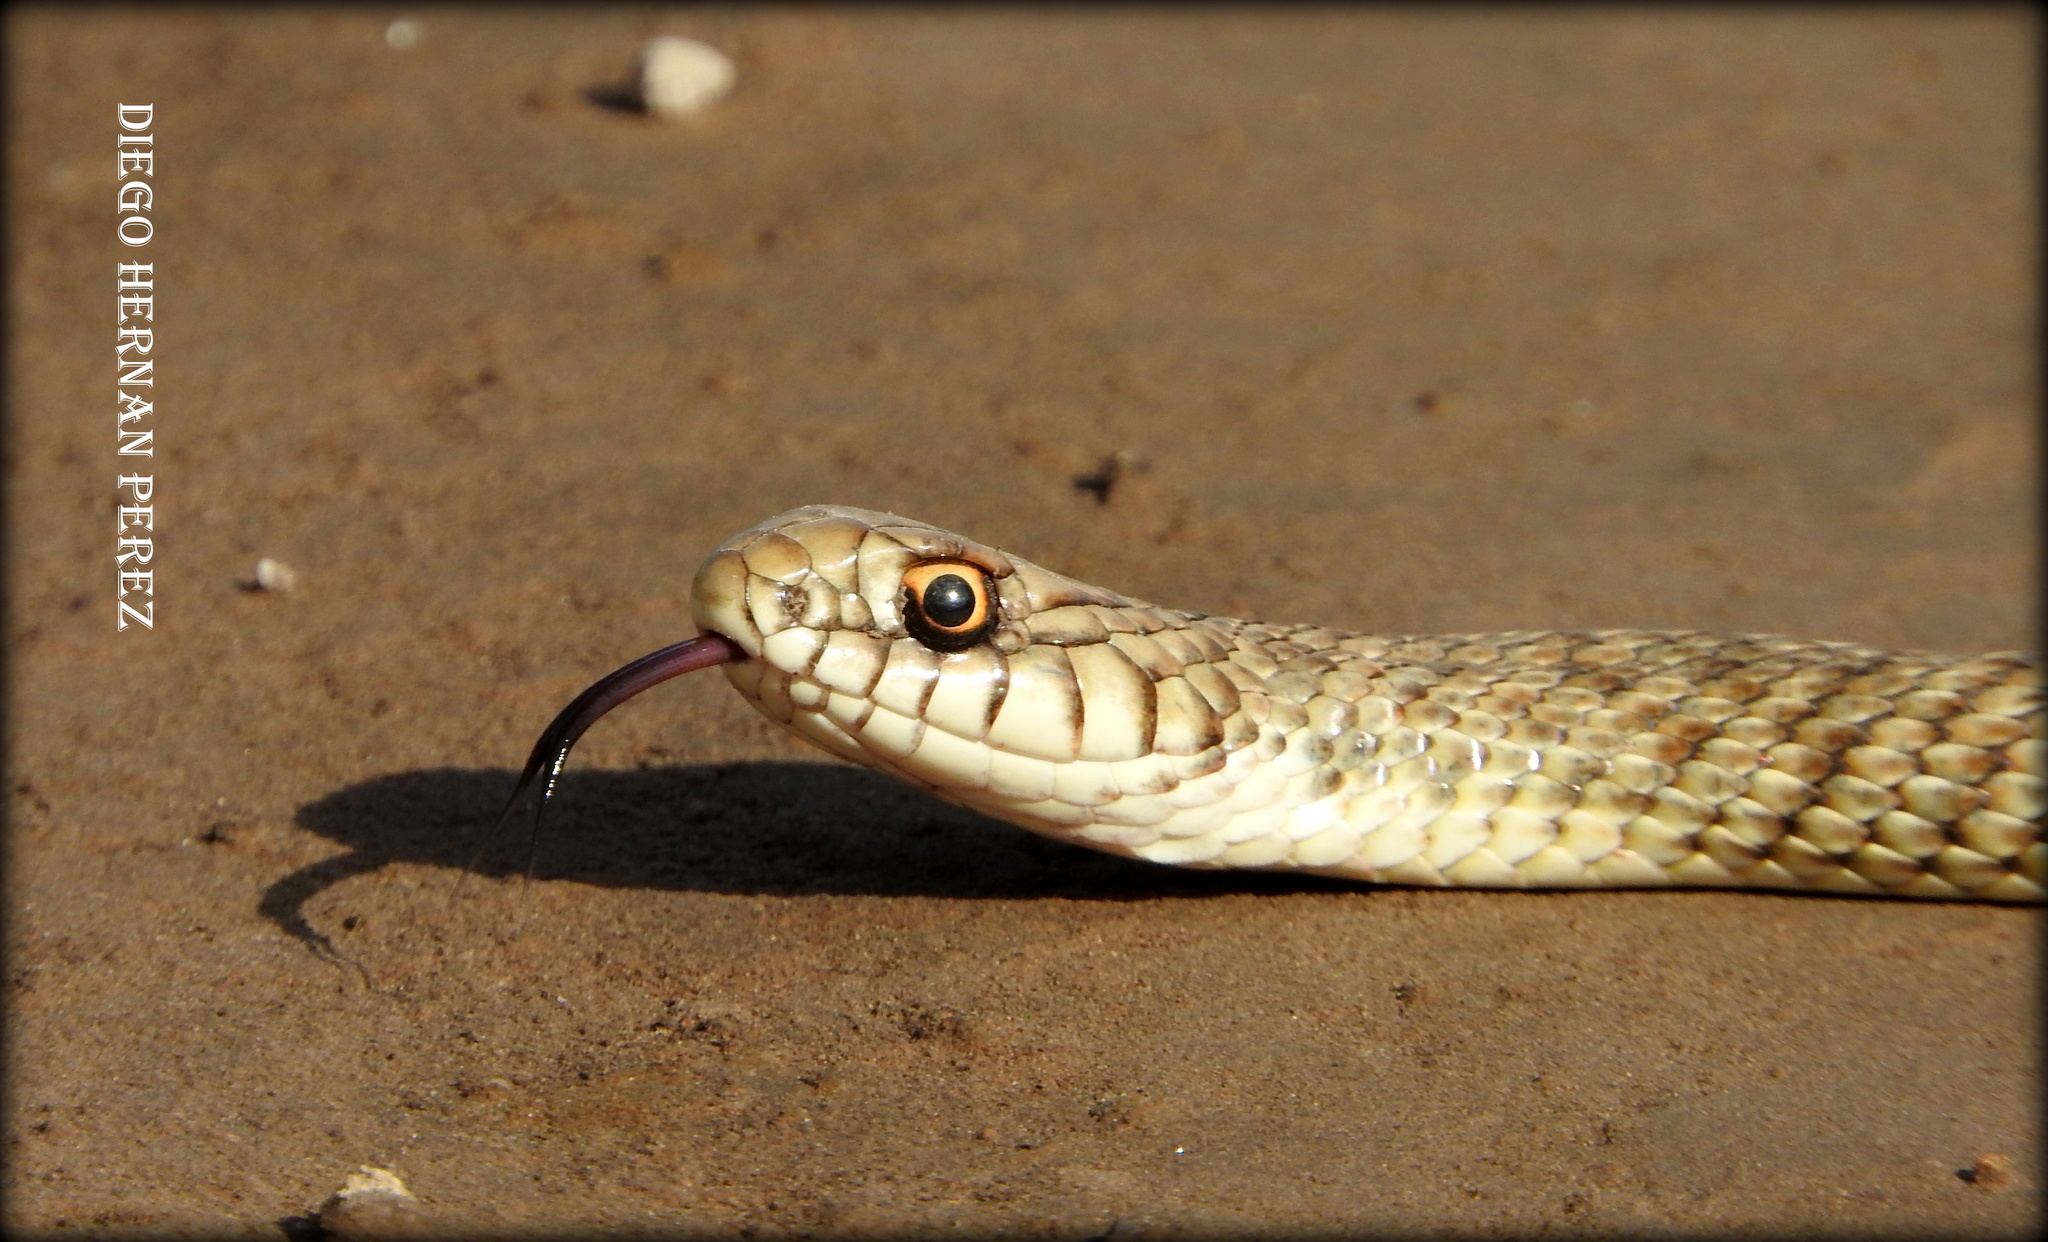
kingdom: Animalia
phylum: Chordata
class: Squamata
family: Colubridae
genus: Philodryas
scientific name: Philodryas patagoniensis
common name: Patagonia green racer
